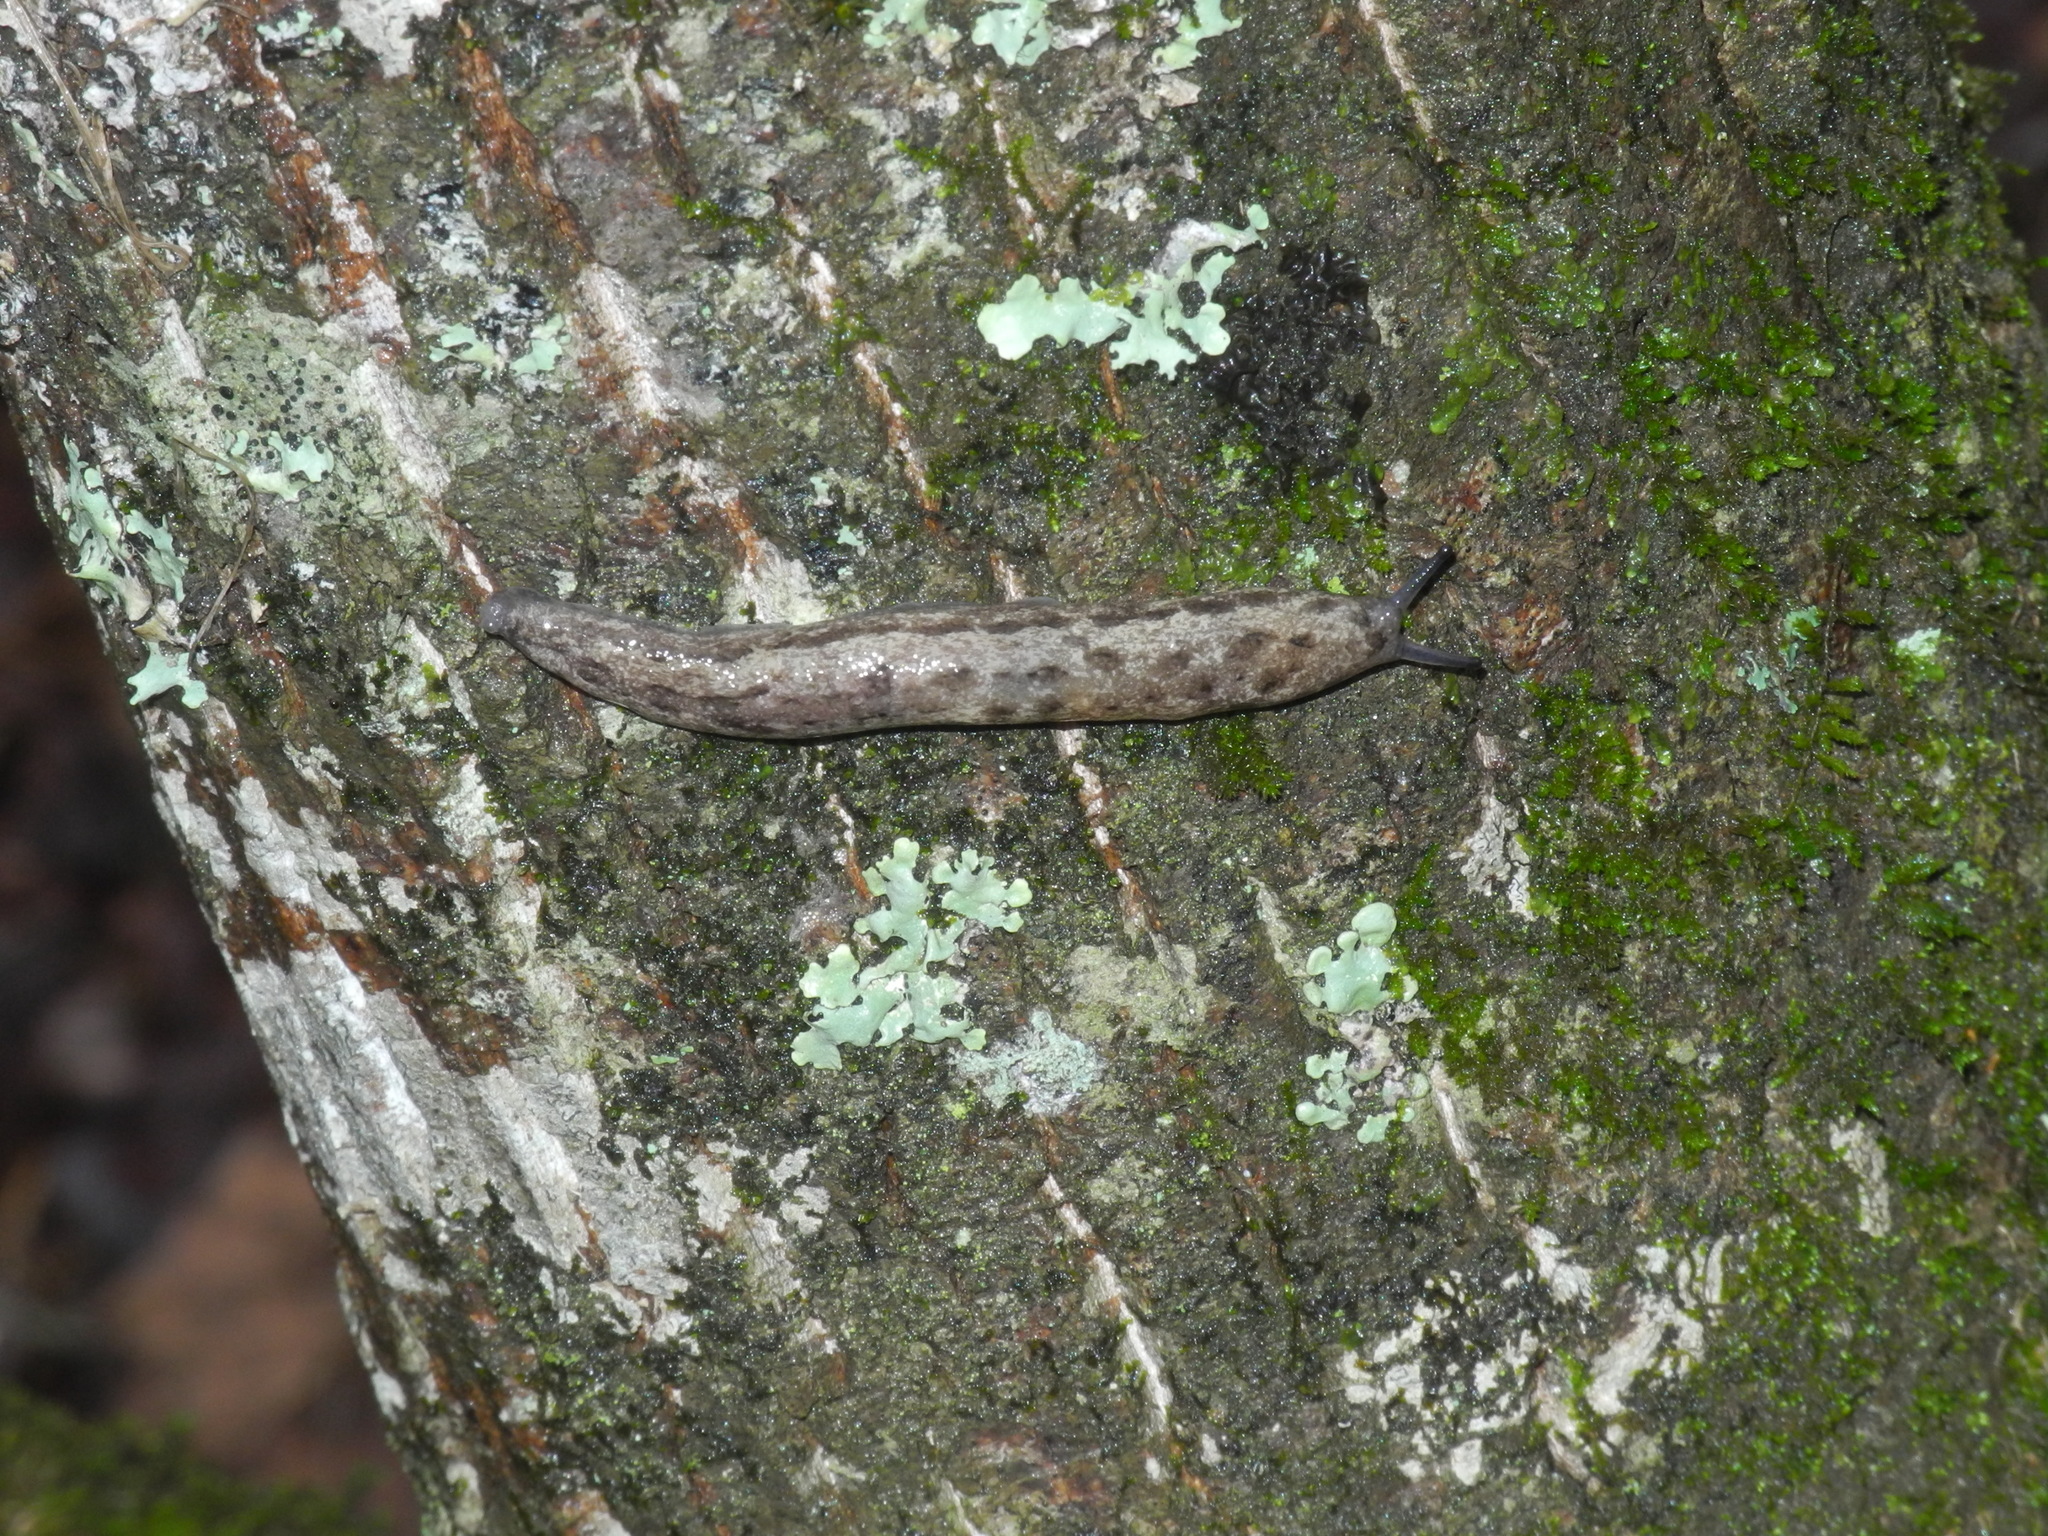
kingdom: Animalia
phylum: Mollusca
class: Gastropoda
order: Stylommatophora
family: Philomycidae
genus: Megapallifera
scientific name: Megapallifera mutabilis
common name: Changeable mantleslug
